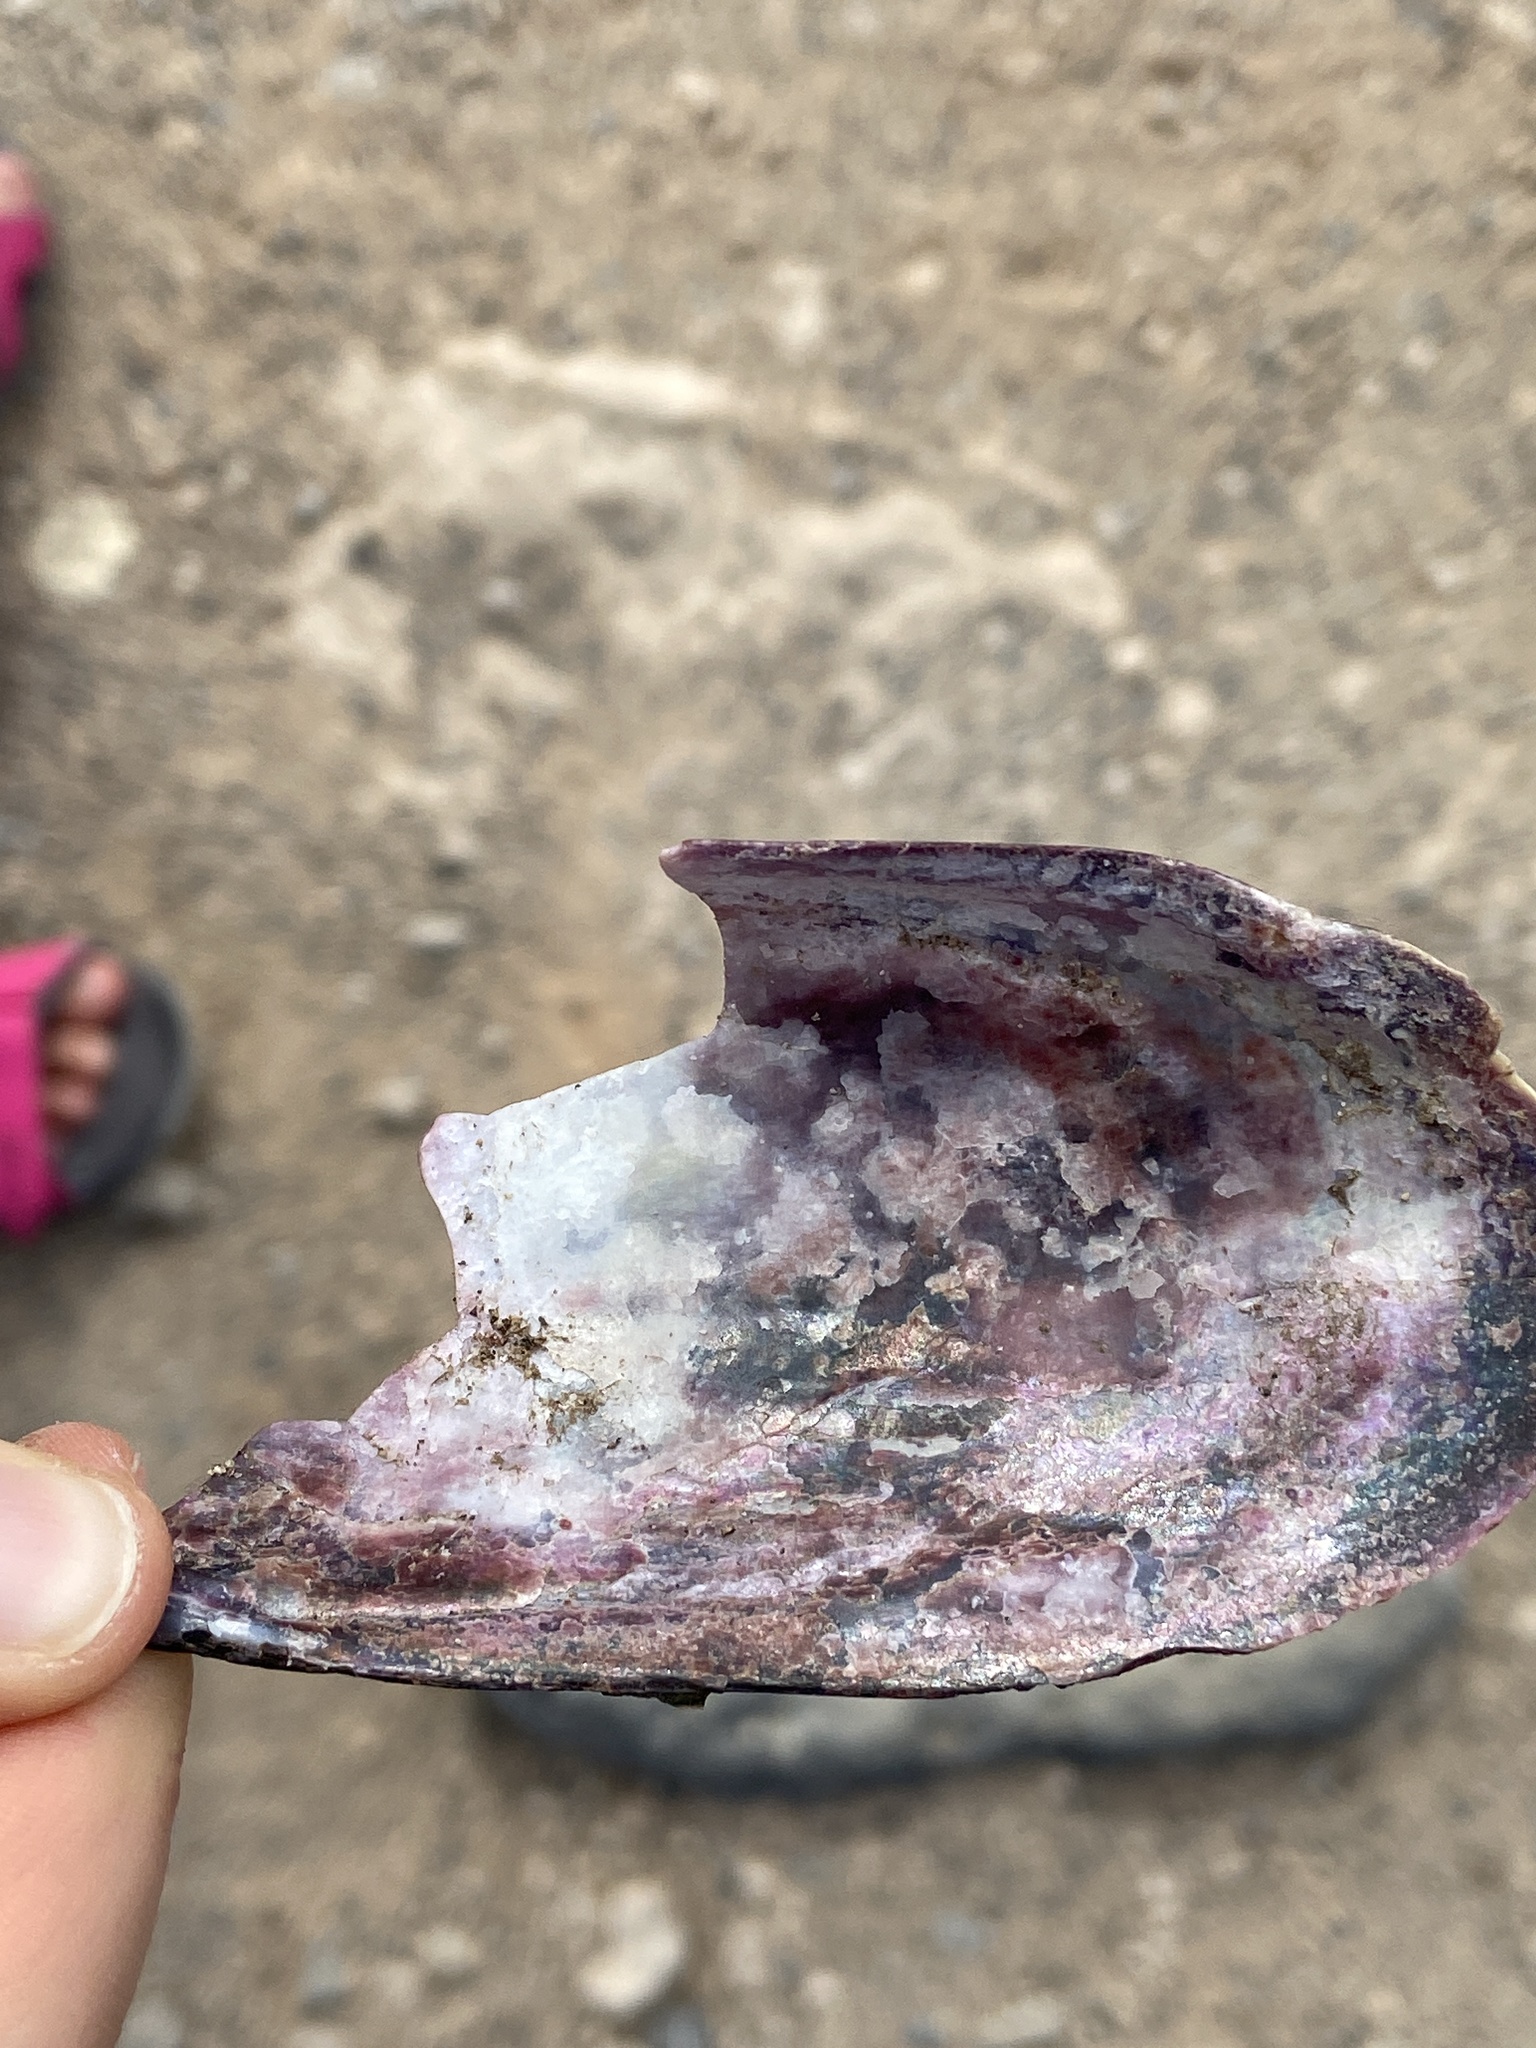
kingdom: Animalia
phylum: Mollusca
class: Bivalvia
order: Mytilida
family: Mytilidae
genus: Perna
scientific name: Perna perna
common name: Mexilhao mussel
